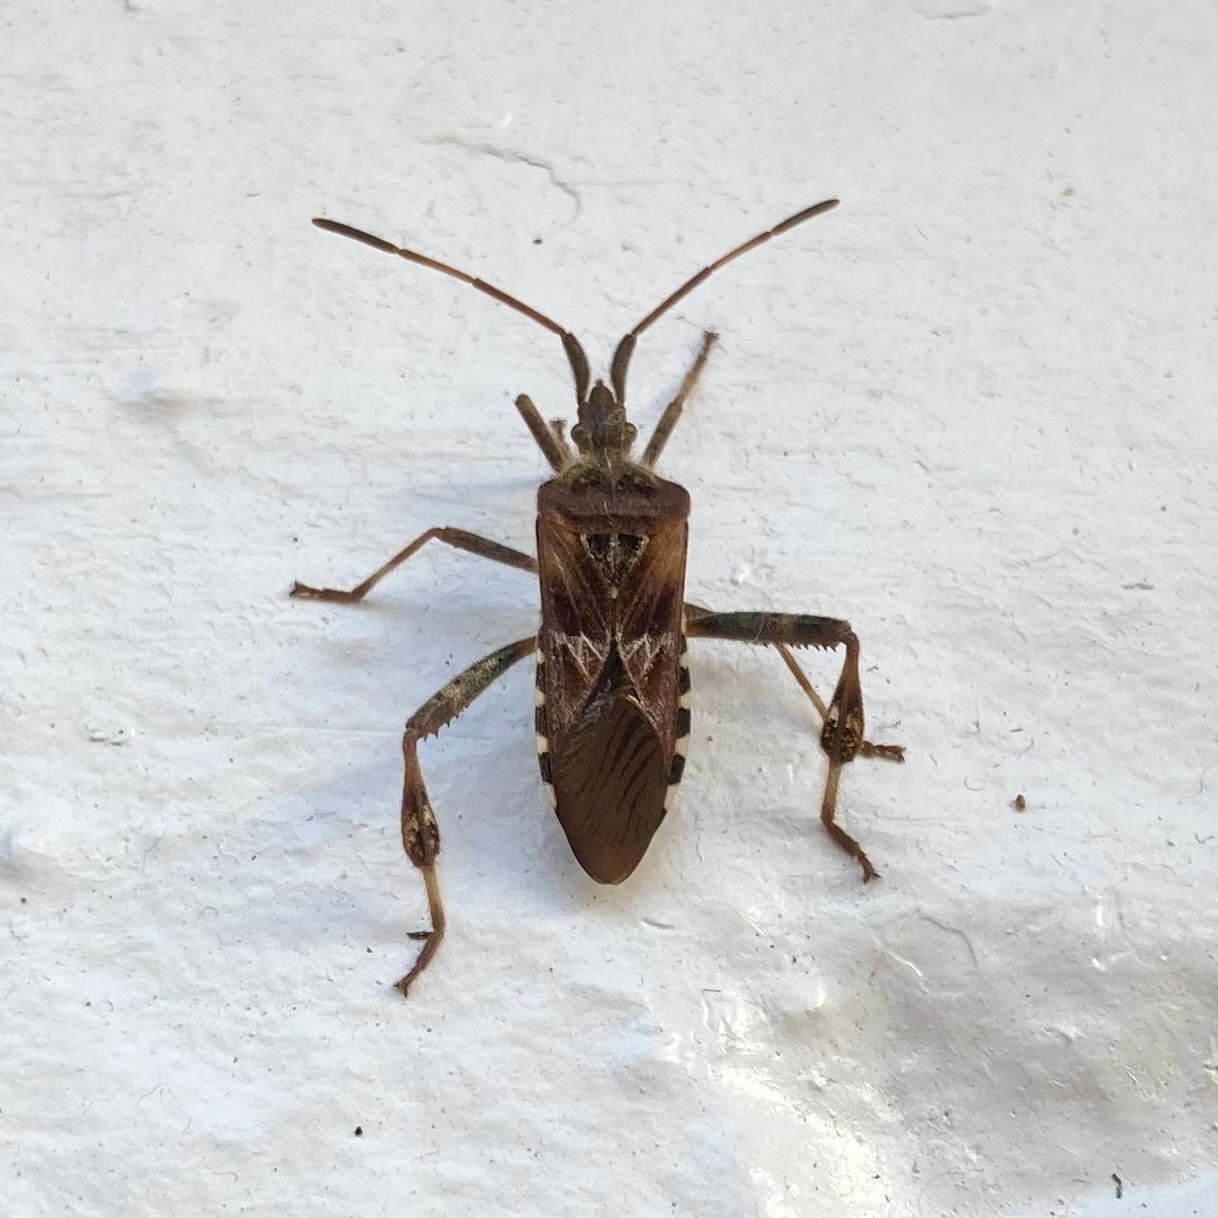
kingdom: Animalia
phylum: Arthropoda
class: Insecta
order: Hemiptera
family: Coreidae
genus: Leptoglossus
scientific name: Leptoglossus occidentalis
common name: Western conifer-seed bug
